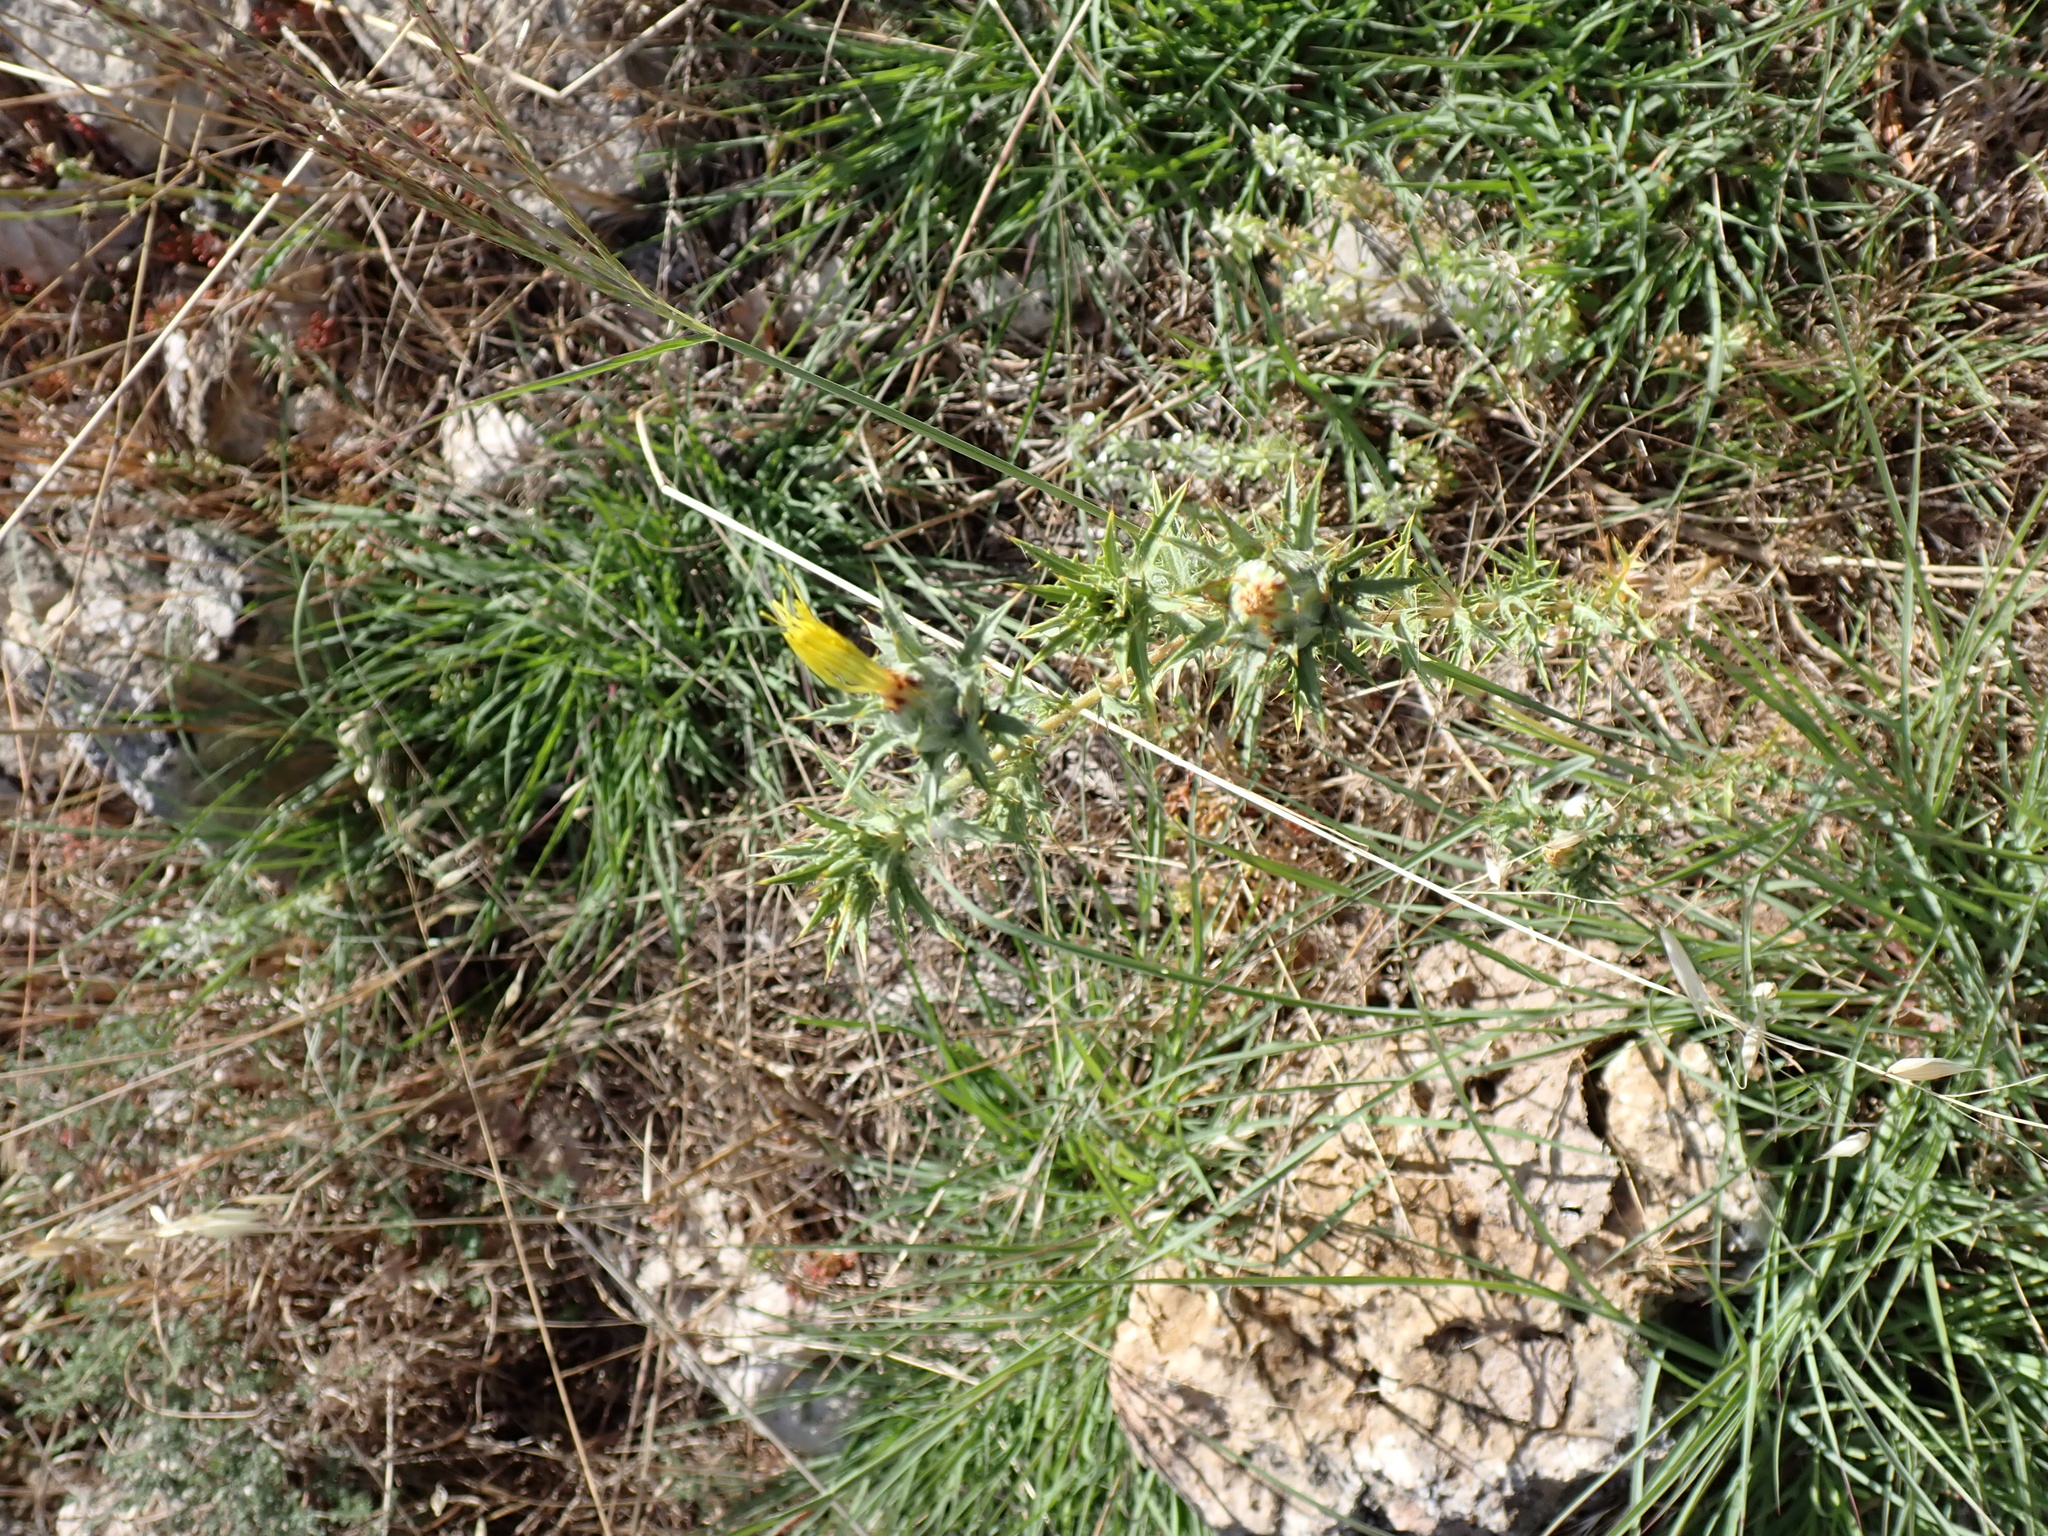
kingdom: Plantae
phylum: Tracheophyta
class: Magnoliopsida
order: Asterales
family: Asteraceae
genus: Carthamus
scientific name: Carthamus lanatus
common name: Downy safflower
